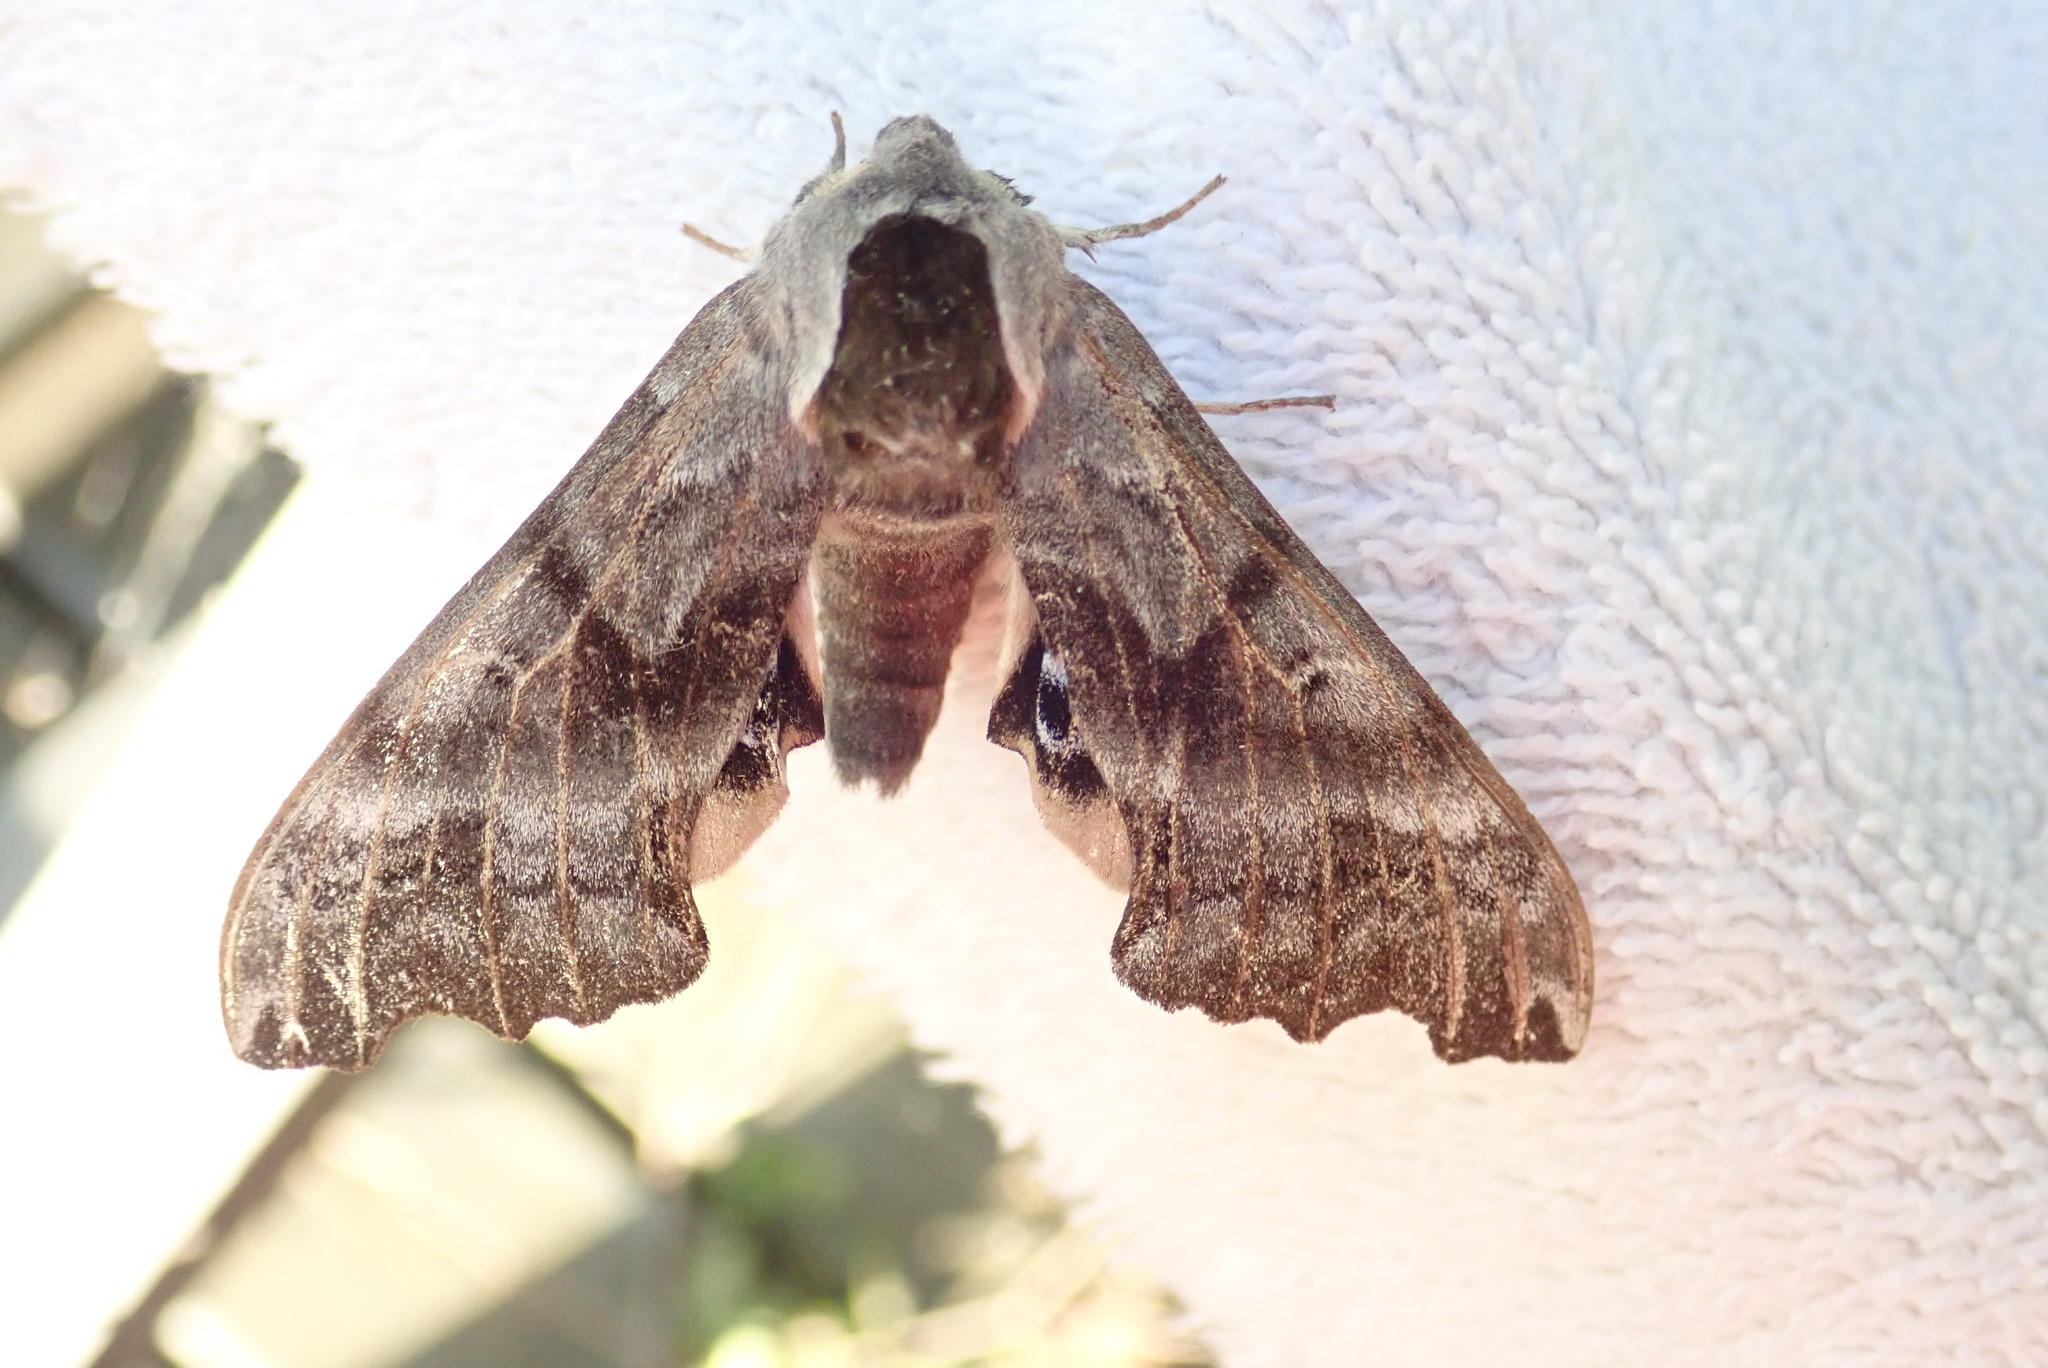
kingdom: Animalia
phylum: Arthropoda
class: Insecta
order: Lepidoptera
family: Sphingidae
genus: Smerinthus
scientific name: Smerinthus cerisyi
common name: Cerisy's sphinx moth
